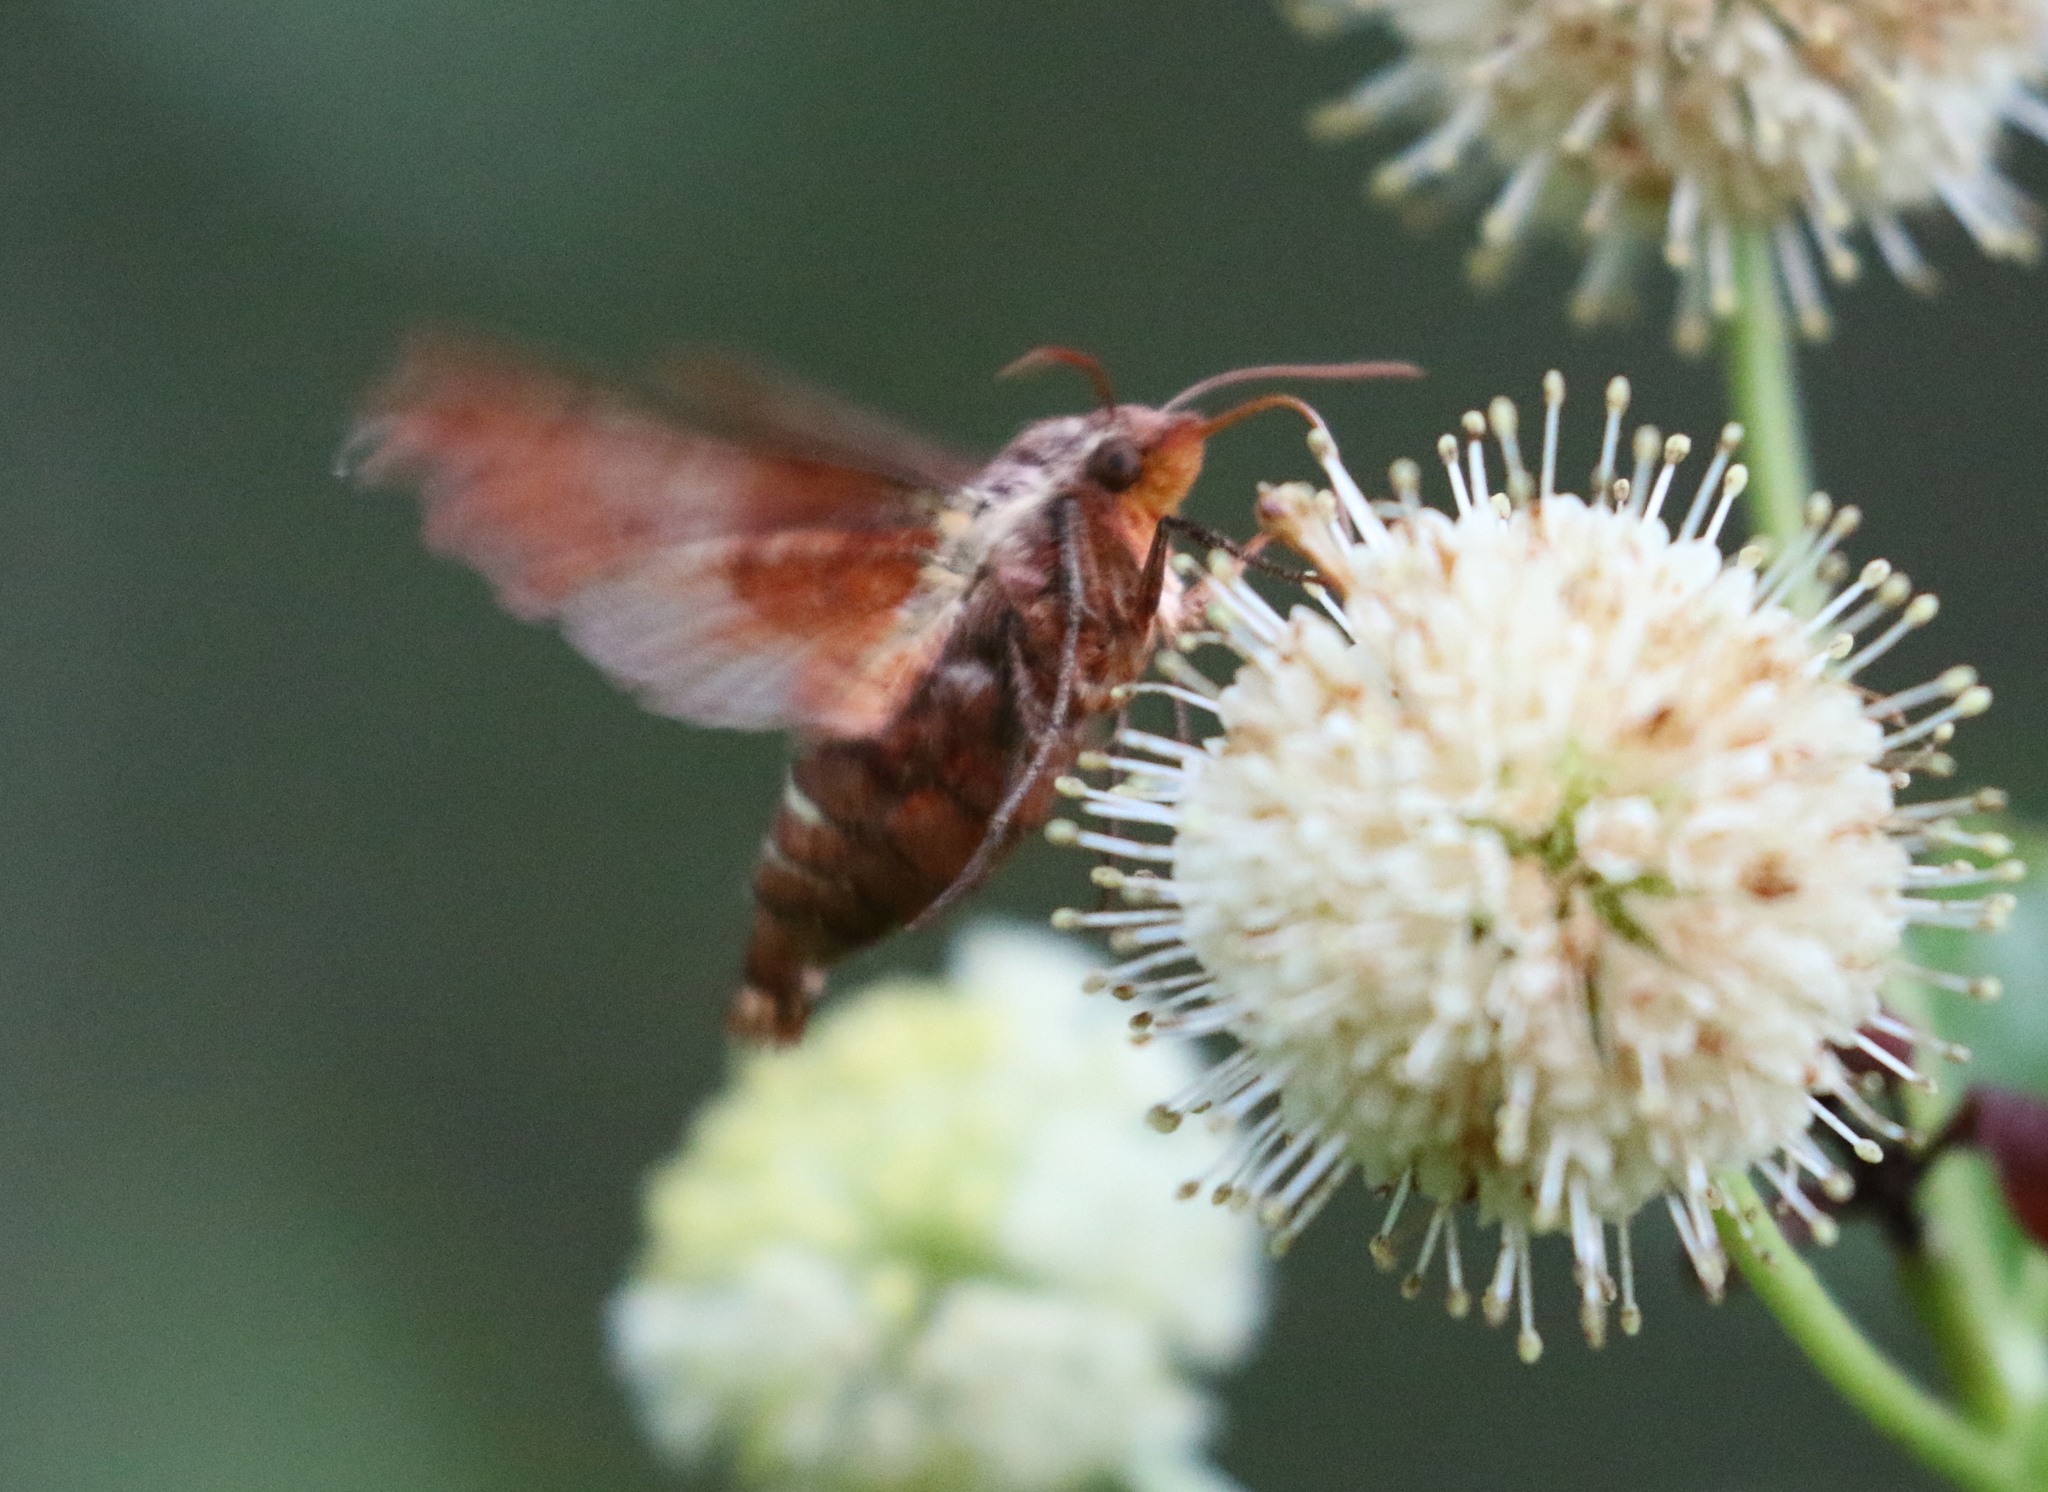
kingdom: Animalia
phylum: Arthropoda
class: Insecta
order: Lepidoptera
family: Sphingidae
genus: Amphion
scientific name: Amphion floridensis
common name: Nessus sphinx
